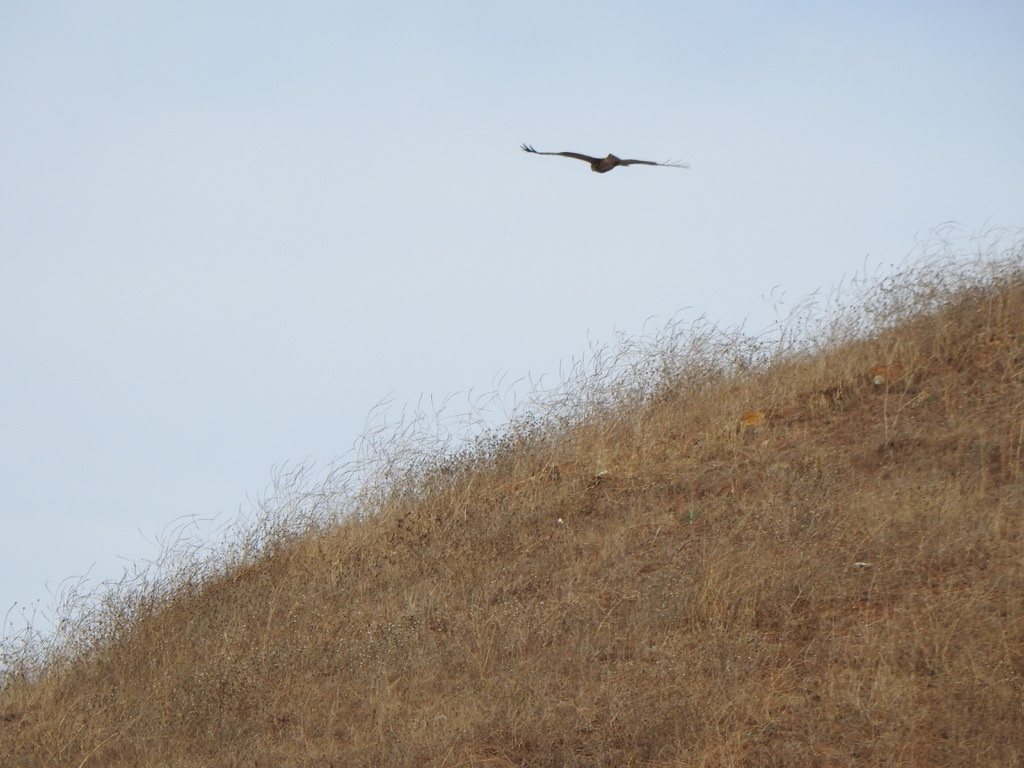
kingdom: Animalia
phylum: Chordata
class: Aves
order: Accipitriformes
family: Accipitridae
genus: Buteo
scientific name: Buteo jamaicensis
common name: Red-tailed hawk
